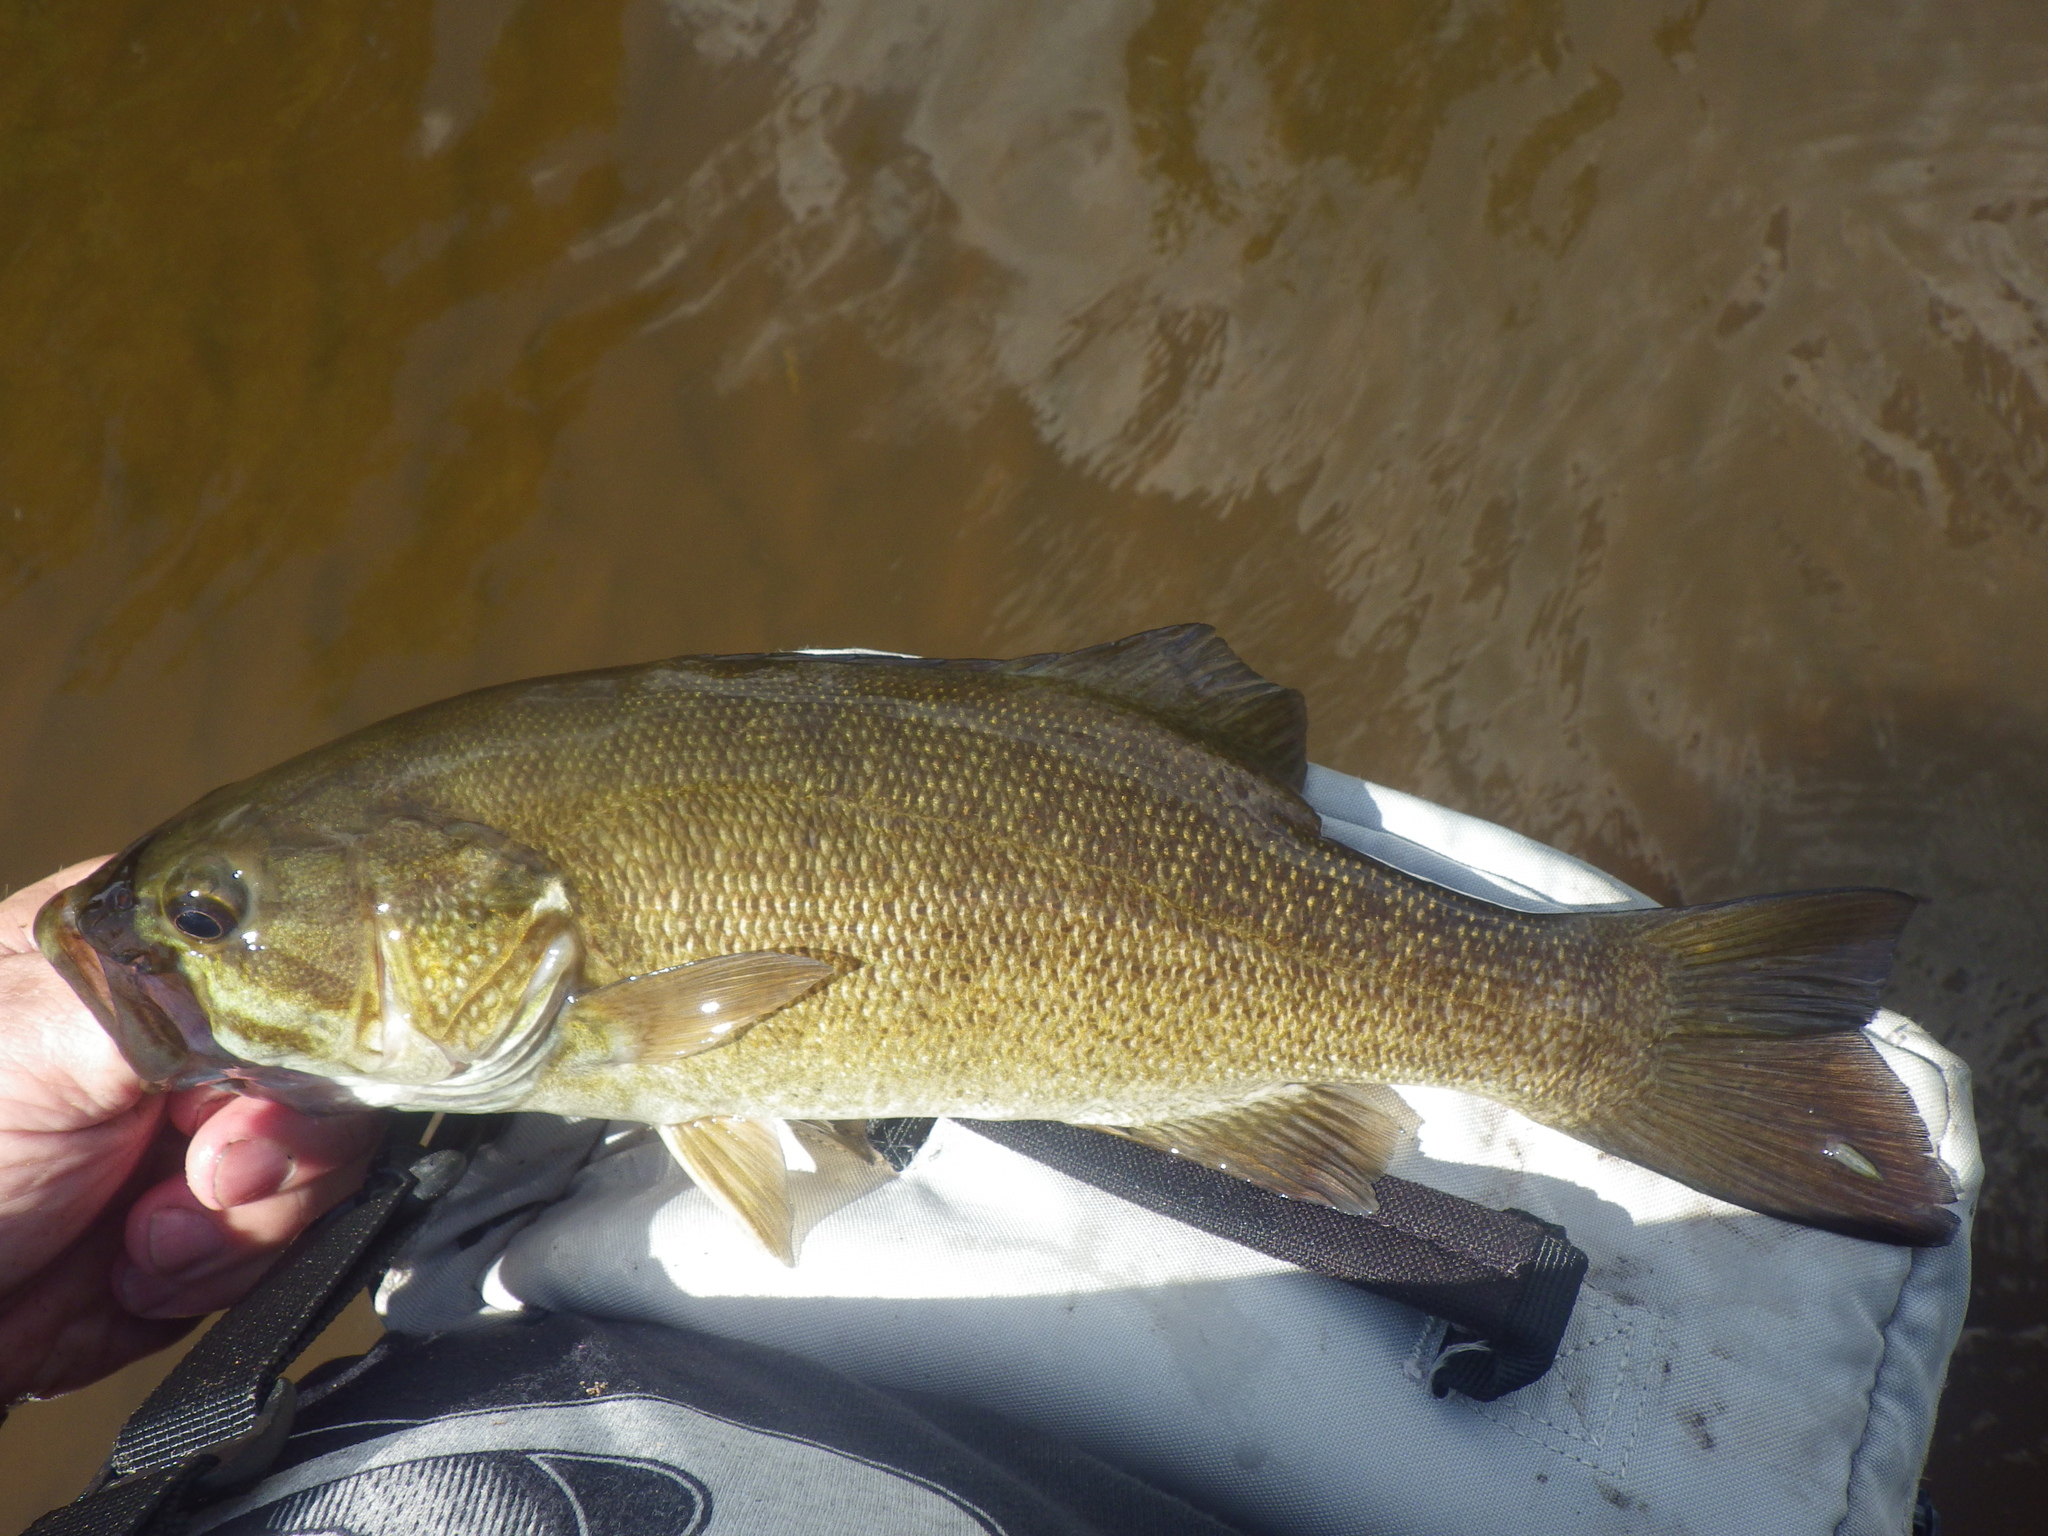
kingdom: Animalia
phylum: Chordata
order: Perciformes
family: Centrarchidae
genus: Micropterus
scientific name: Micropterus dolomieu
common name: Smallmouth bass
